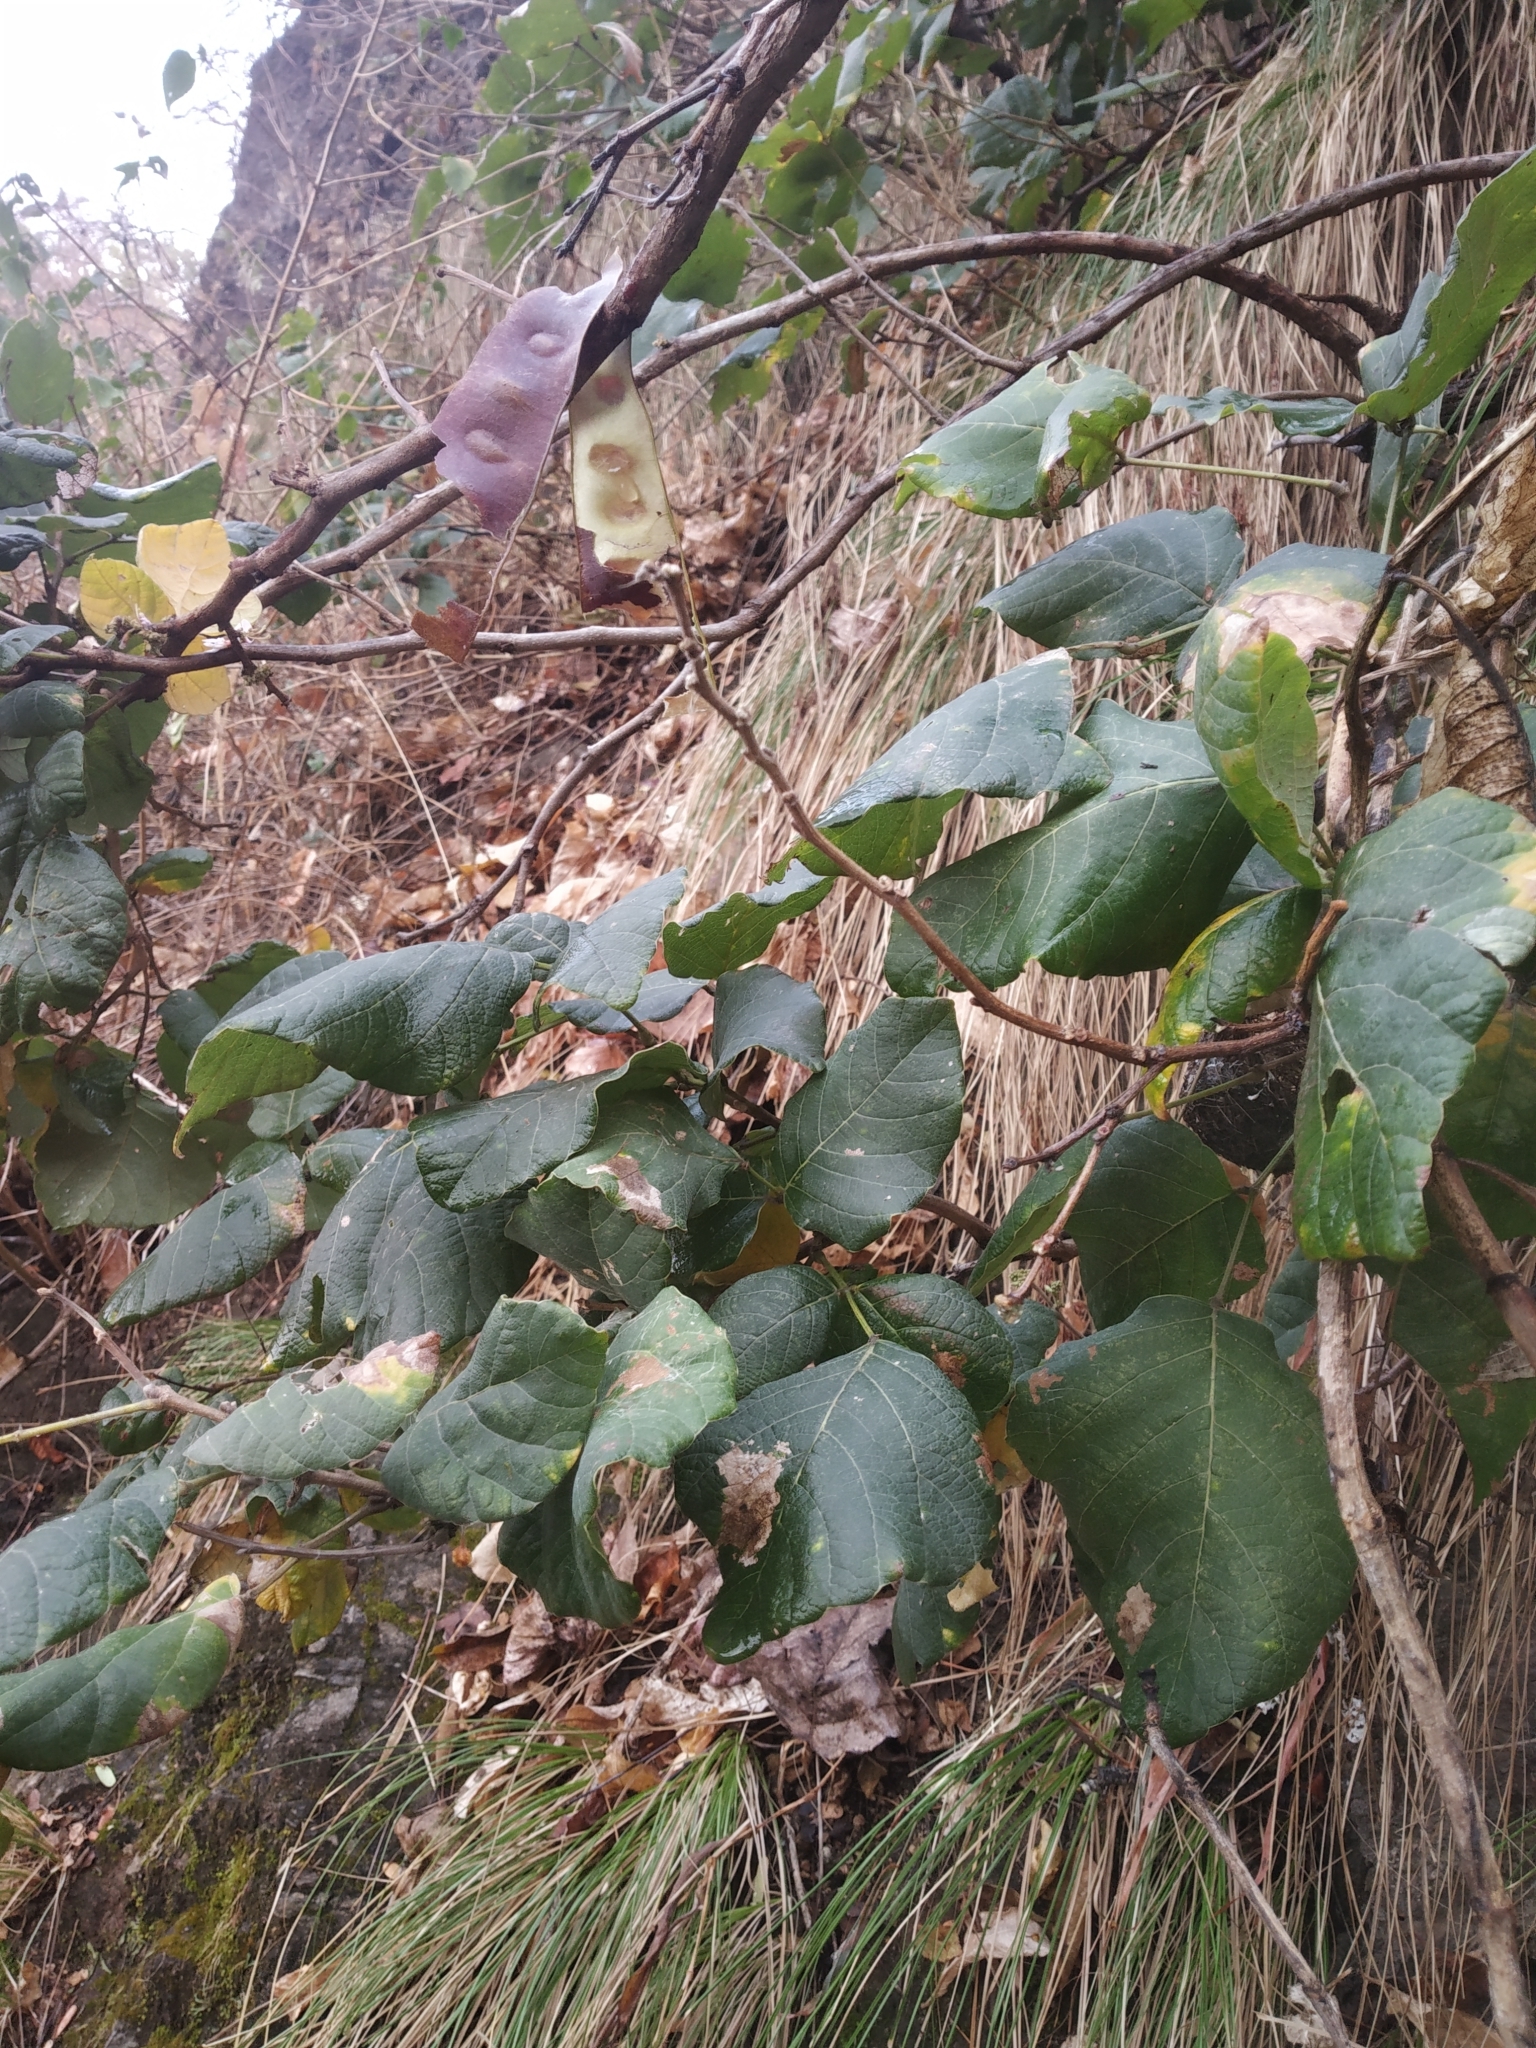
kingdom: Plantae
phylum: Tracheophyta
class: Magnoliopsida
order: Fabales
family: Fabaceae
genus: Ougeinia
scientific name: Ougeinia oojeinensis
